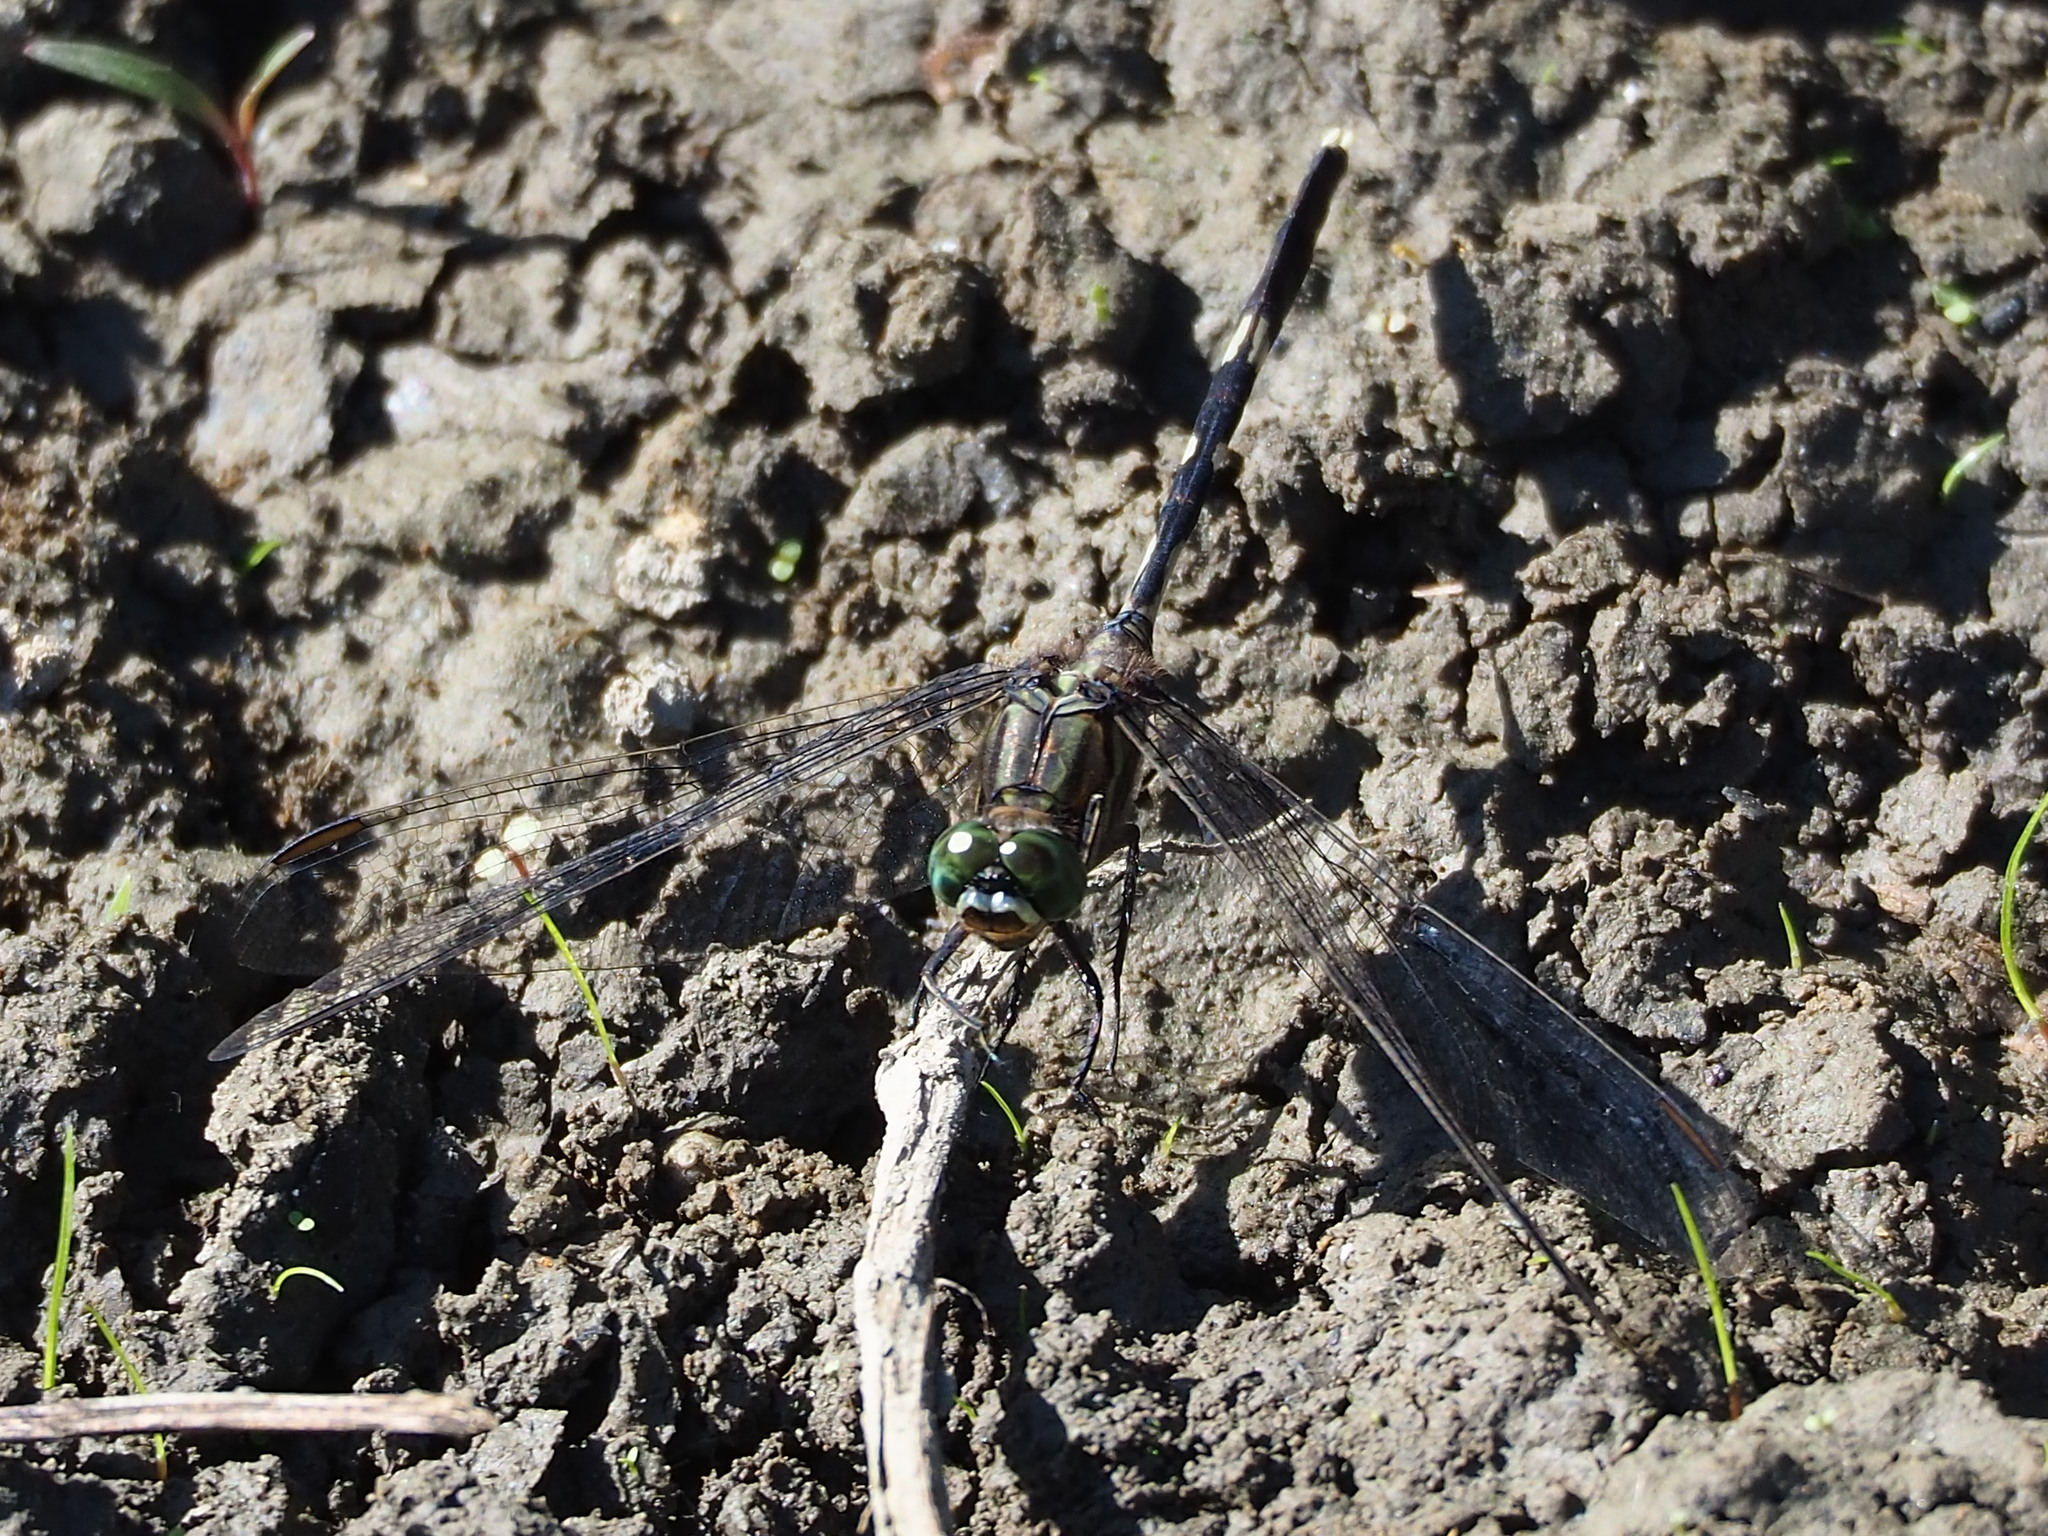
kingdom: Animalia
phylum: Arthropoda
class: Insecta
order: Odonata
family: Libellulidae
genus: Orthetrum
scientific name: Orthetrum sabina
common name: Slender skimmer
